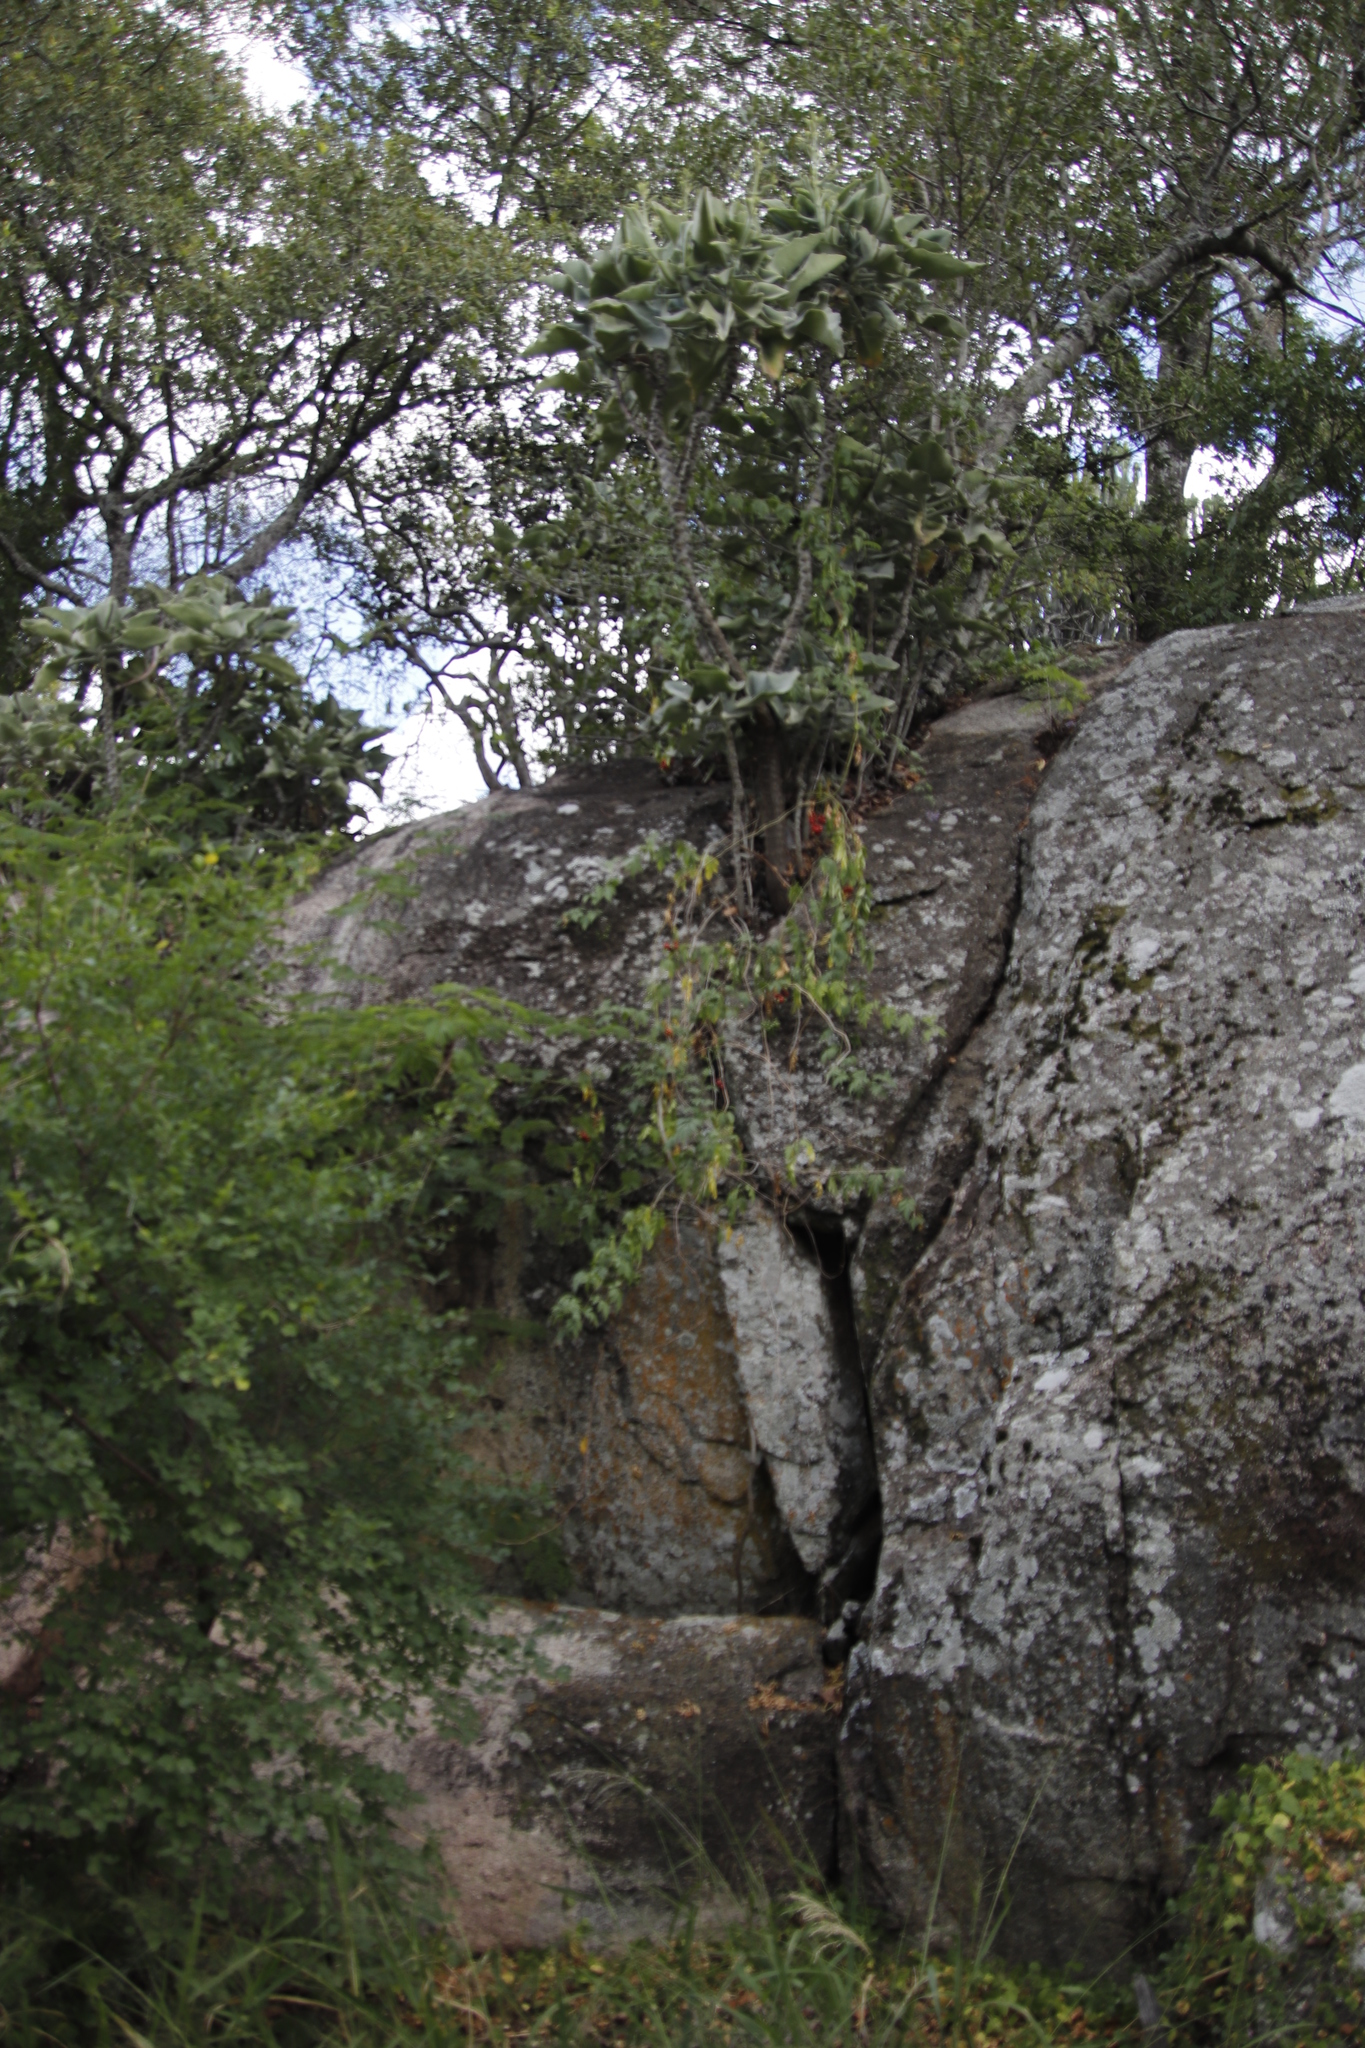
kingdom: Plantae
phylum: Tracheophyta
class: Magnoliopsida
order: Solanales
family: Solanaceae
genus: Solanum
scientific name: Solanum seaforthianum
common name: Brazilian nightshade
